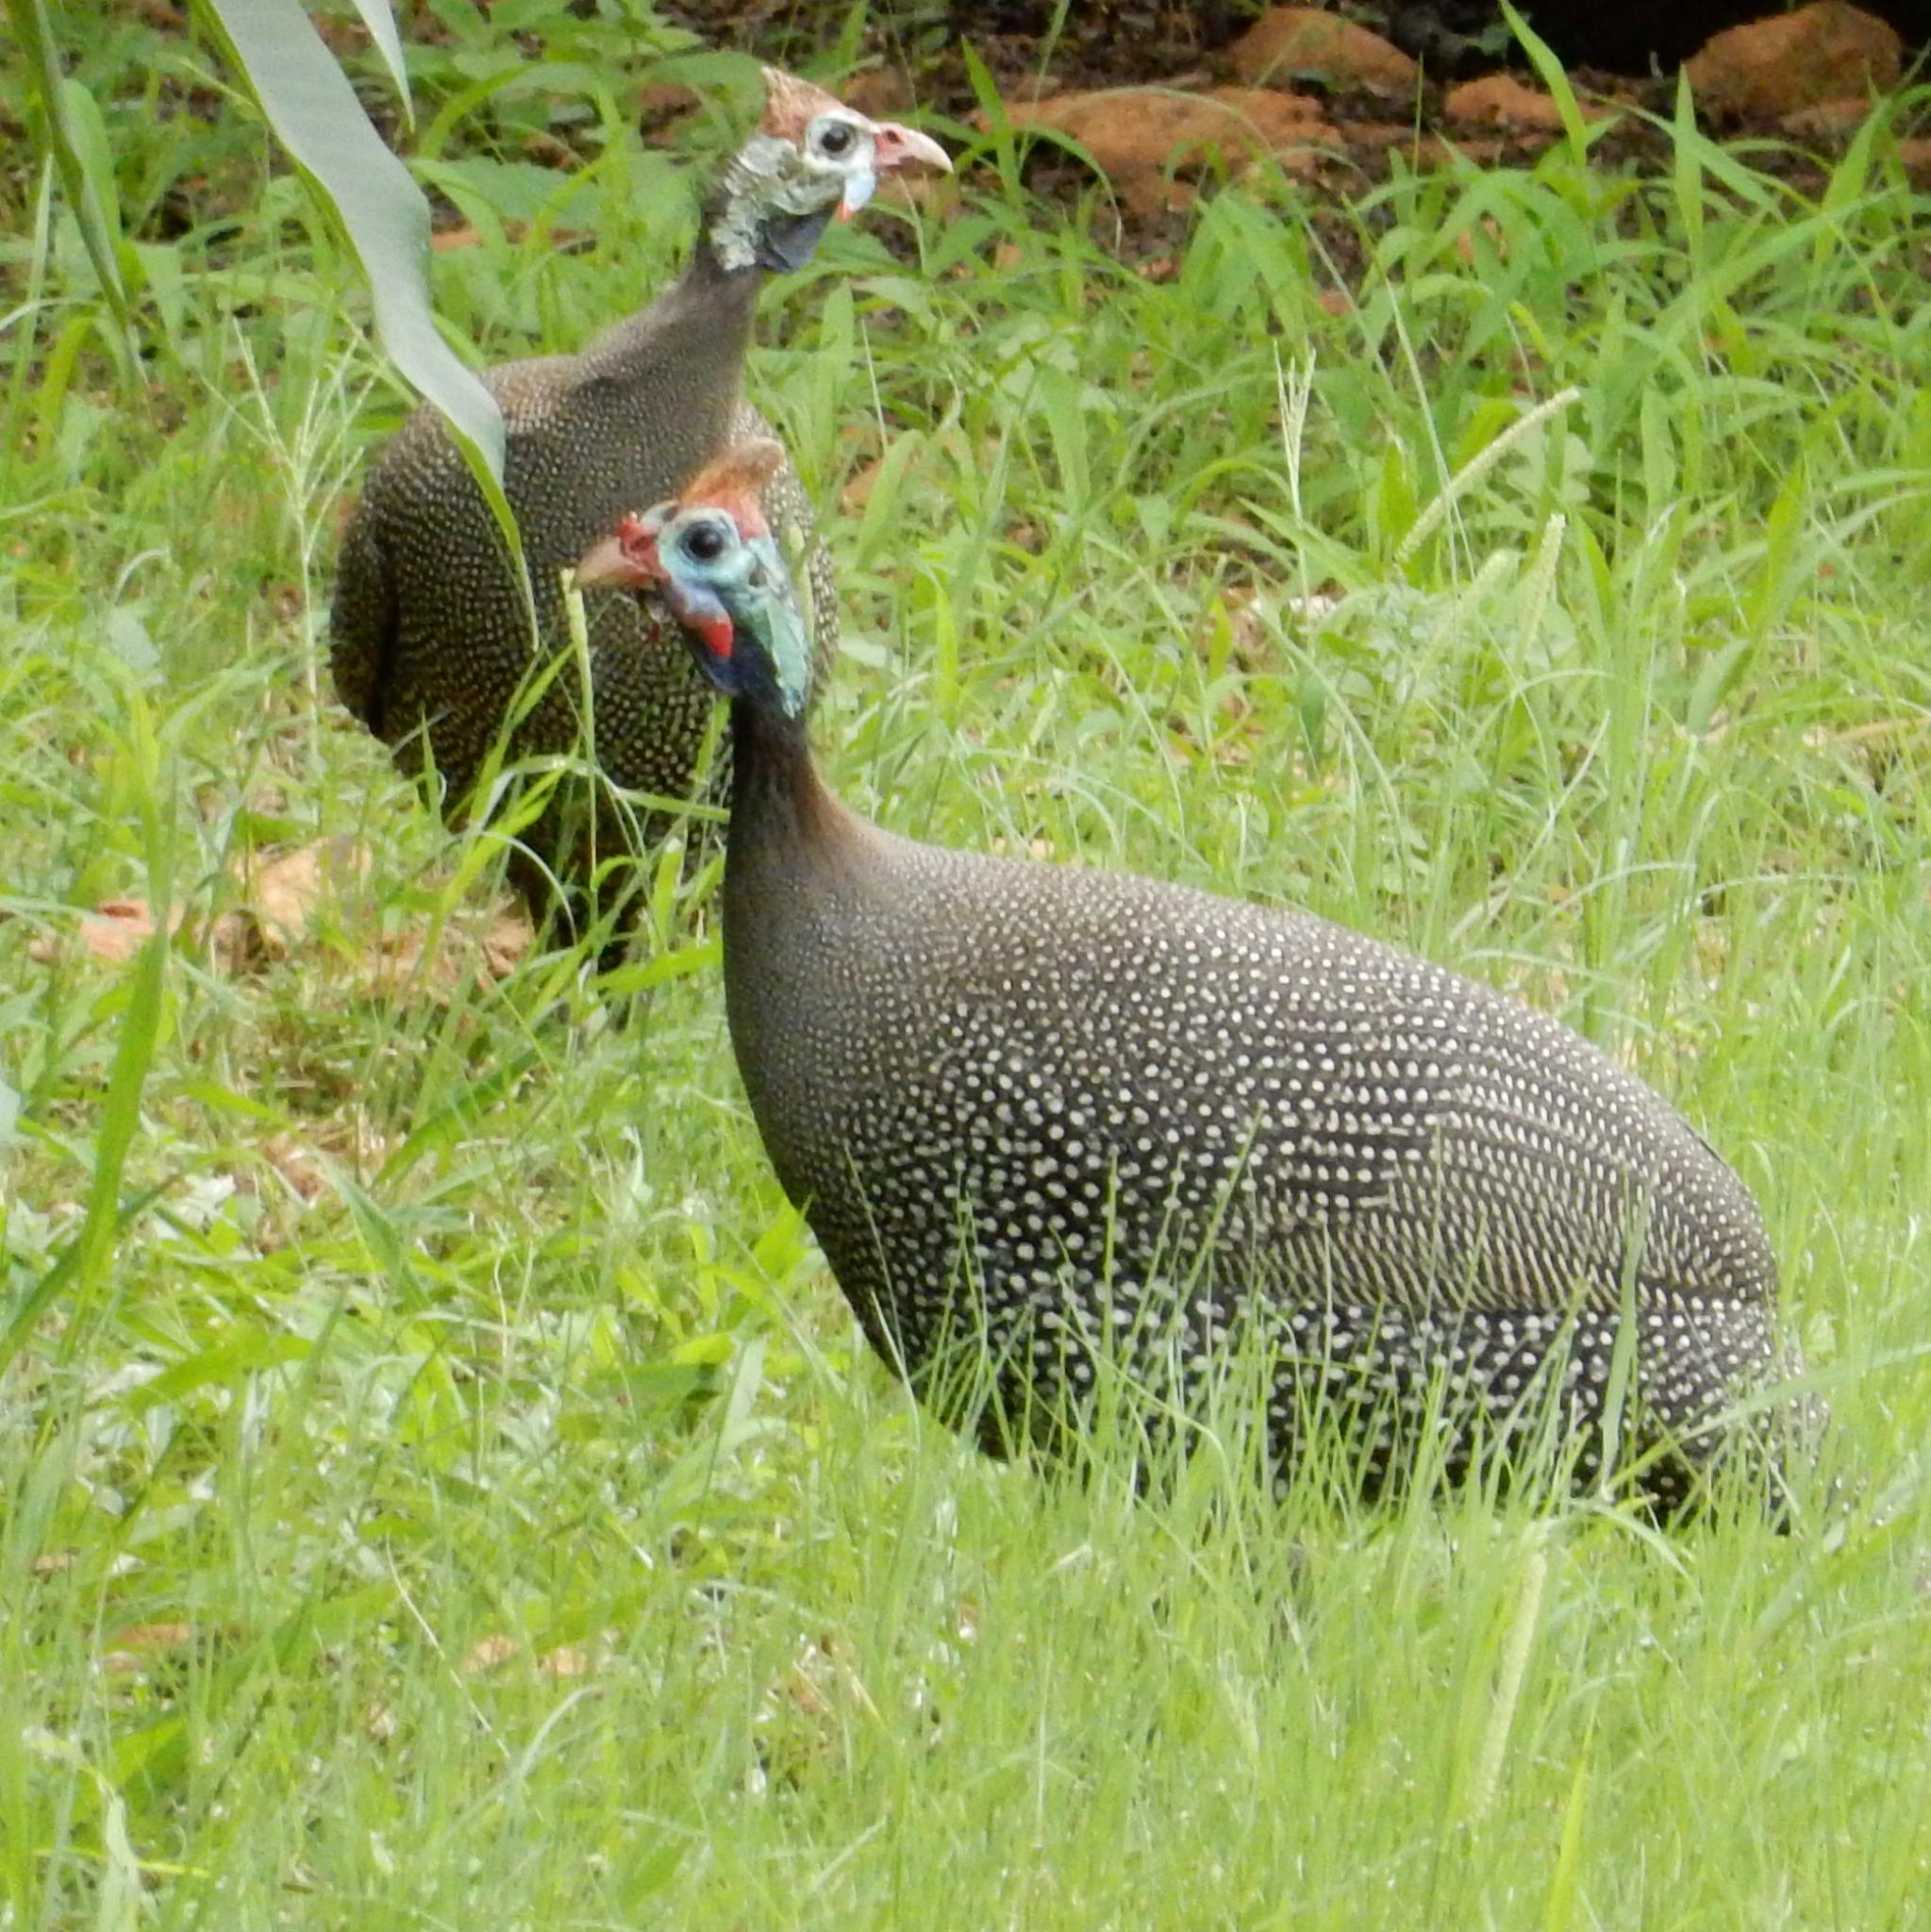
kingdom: Animalia
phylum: Chordata
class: Aves
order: Galliformes
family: Numididae
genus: Numida
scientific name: Numida meleagris
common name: Helmeted guineafowl
